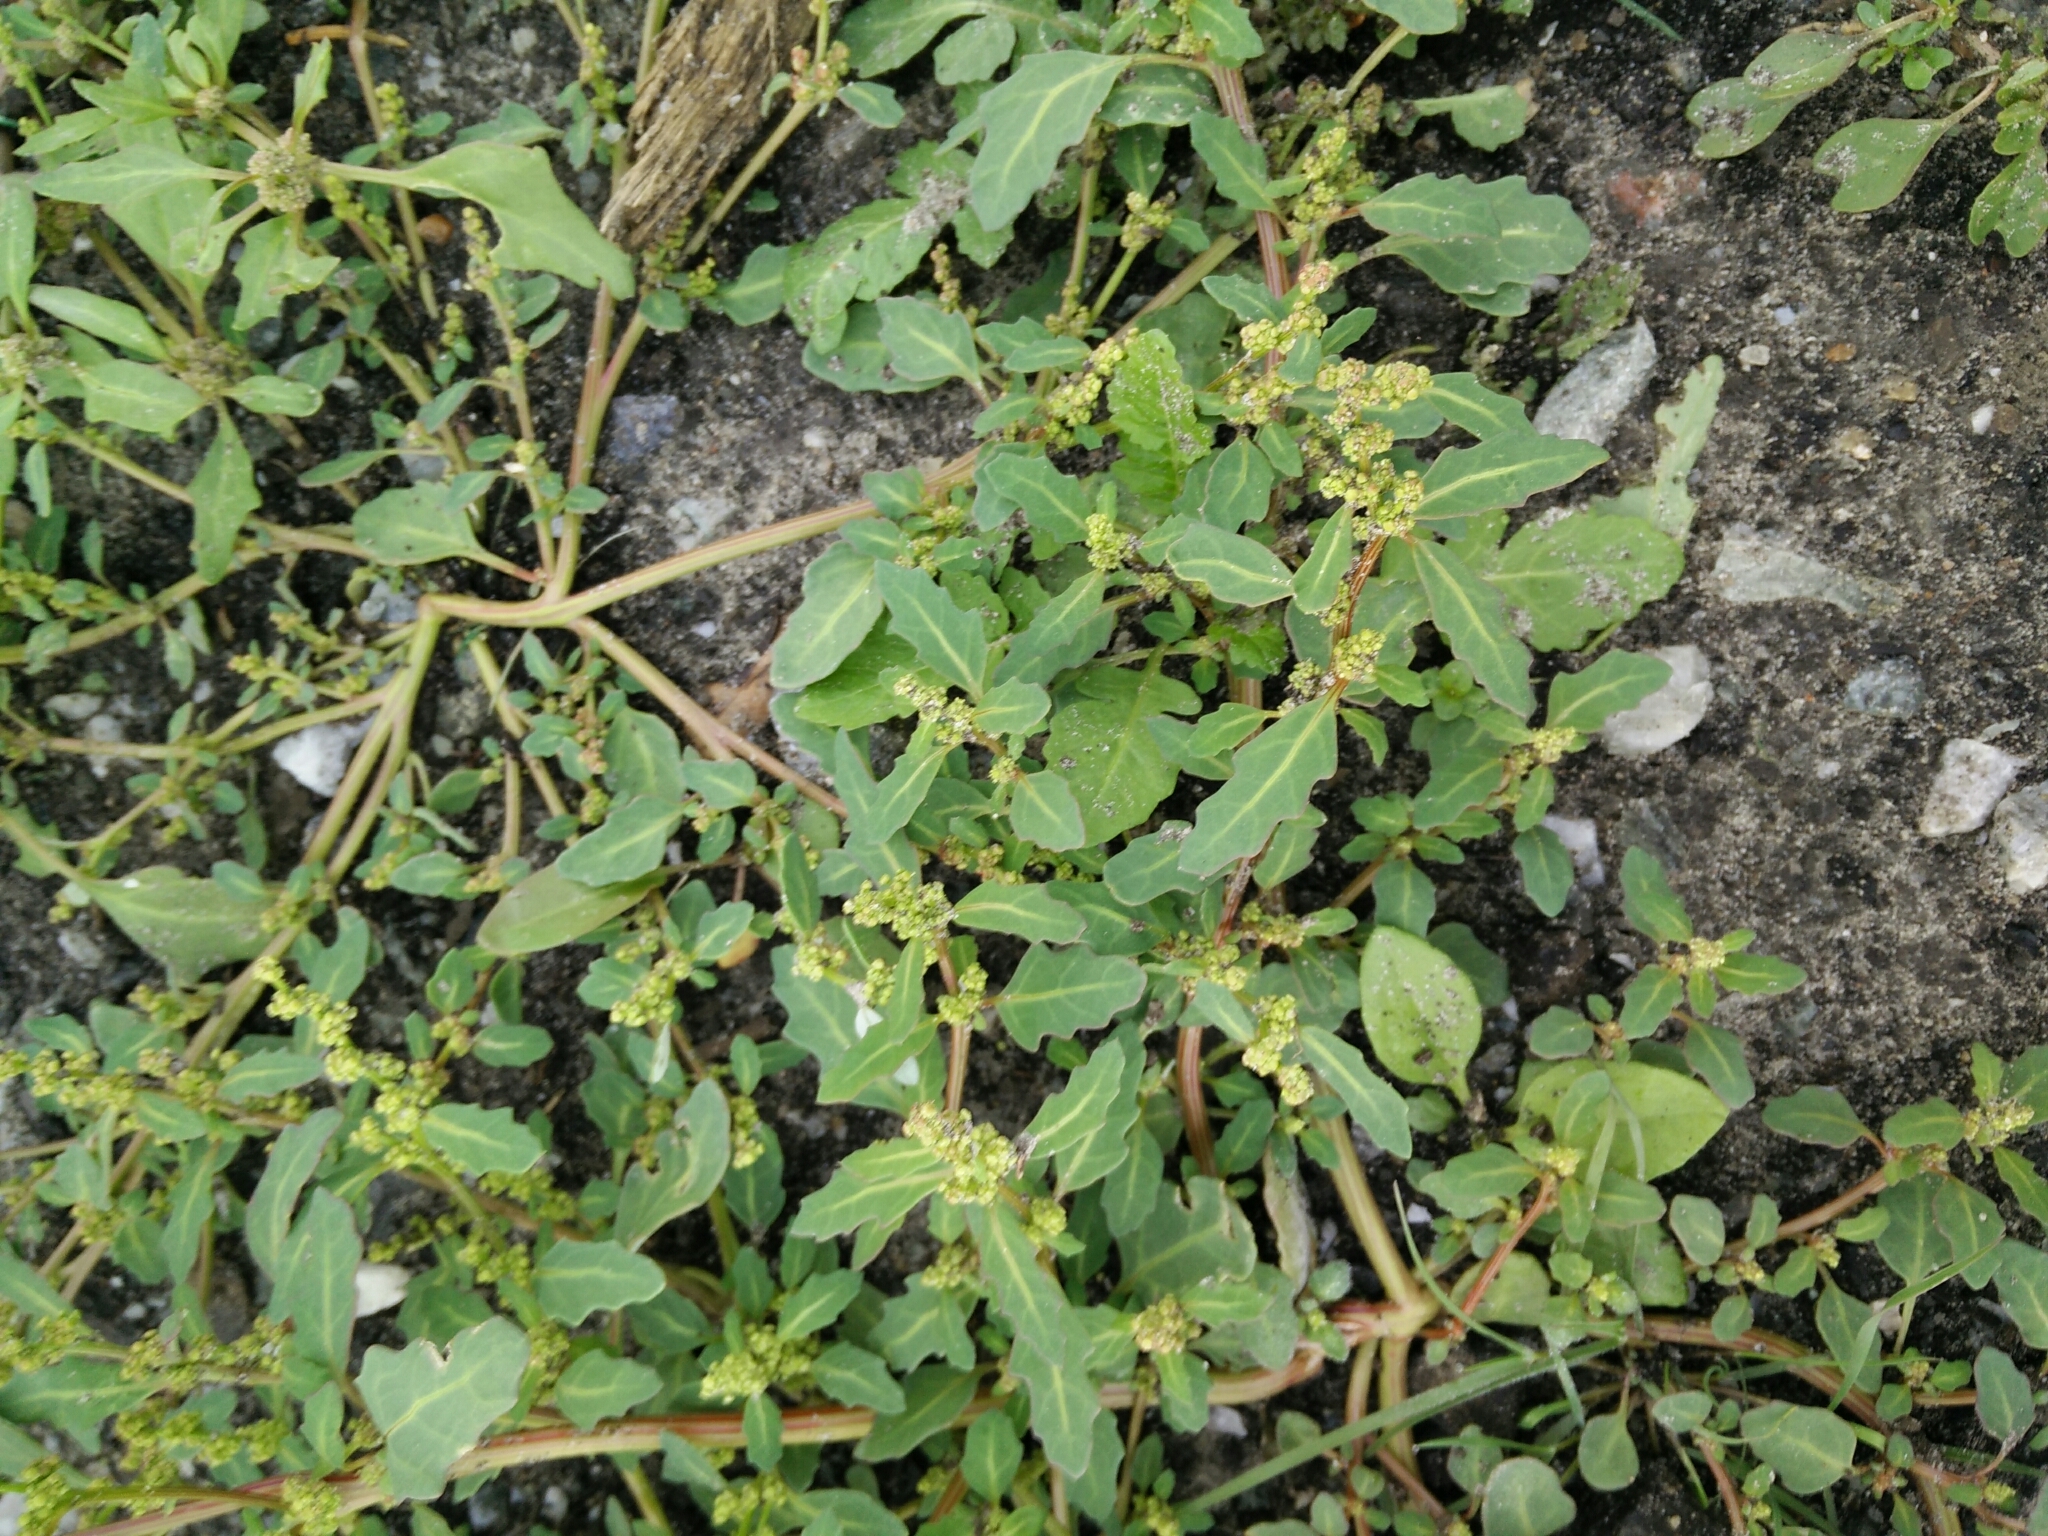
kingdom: Plantae
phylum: Tracheophyta
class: Magnoliopsida
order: Caryophyllales
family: Amaranthaceae
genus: Oxybasis
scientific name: Oxybasis glauca
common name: Glaucous goosefoot
